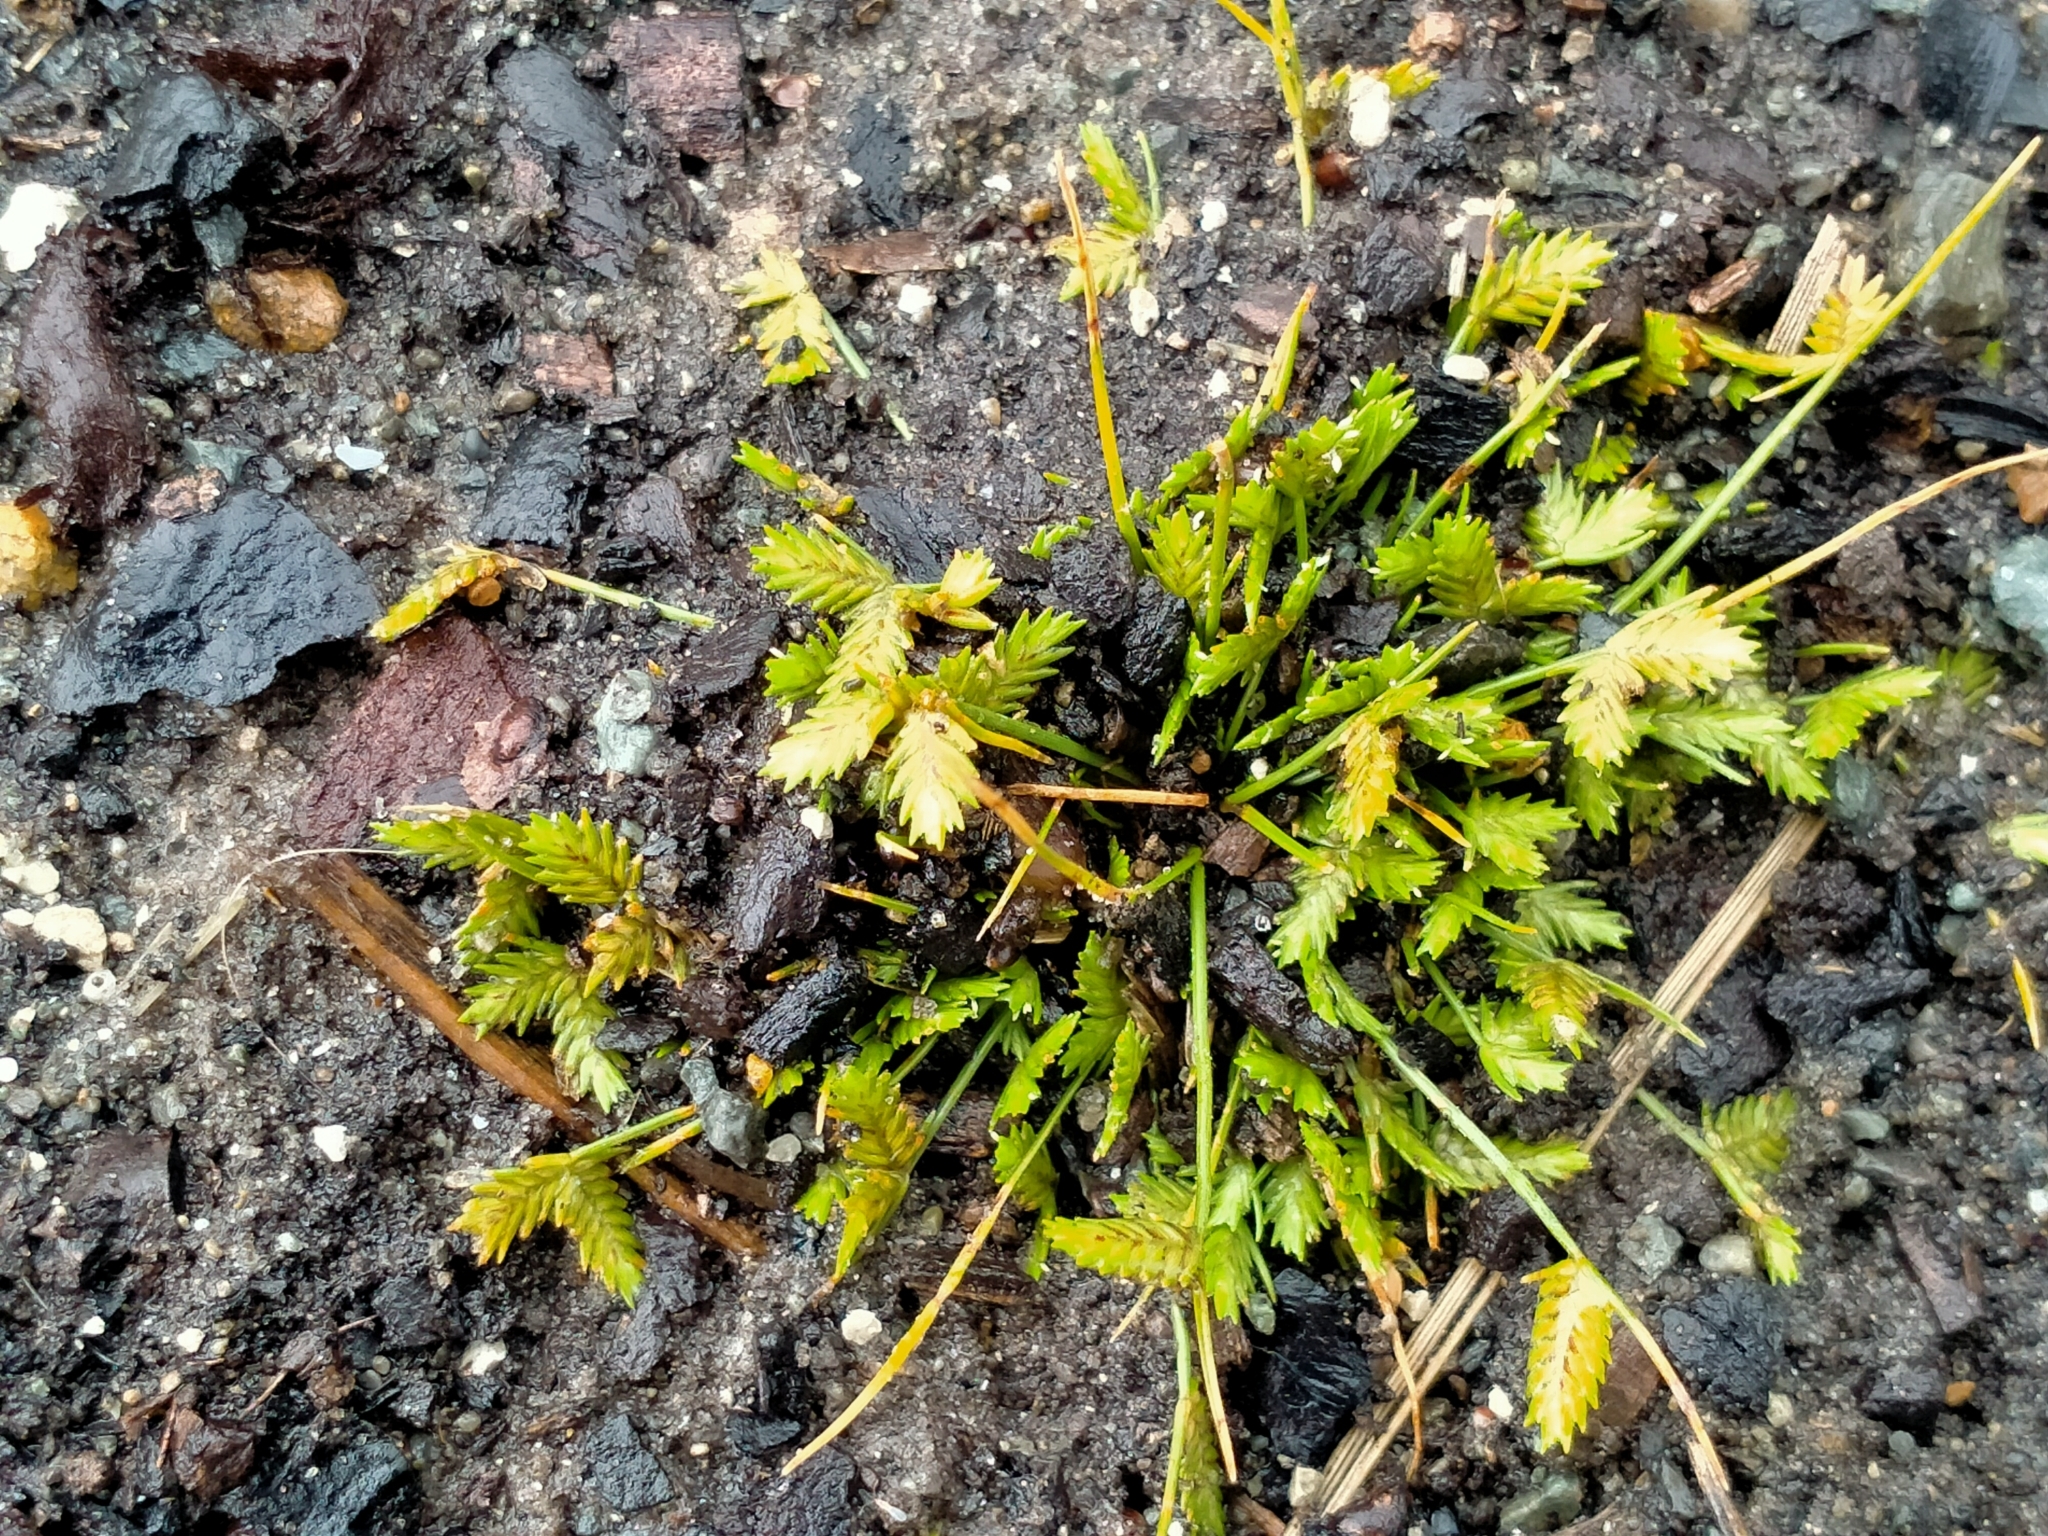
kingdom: Plantae
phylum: Tracheophyta
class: Liliopsida
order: Poales
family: Cyperaceae
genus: Isolepis
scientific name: Isolepis levynsiana
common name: Sedge
